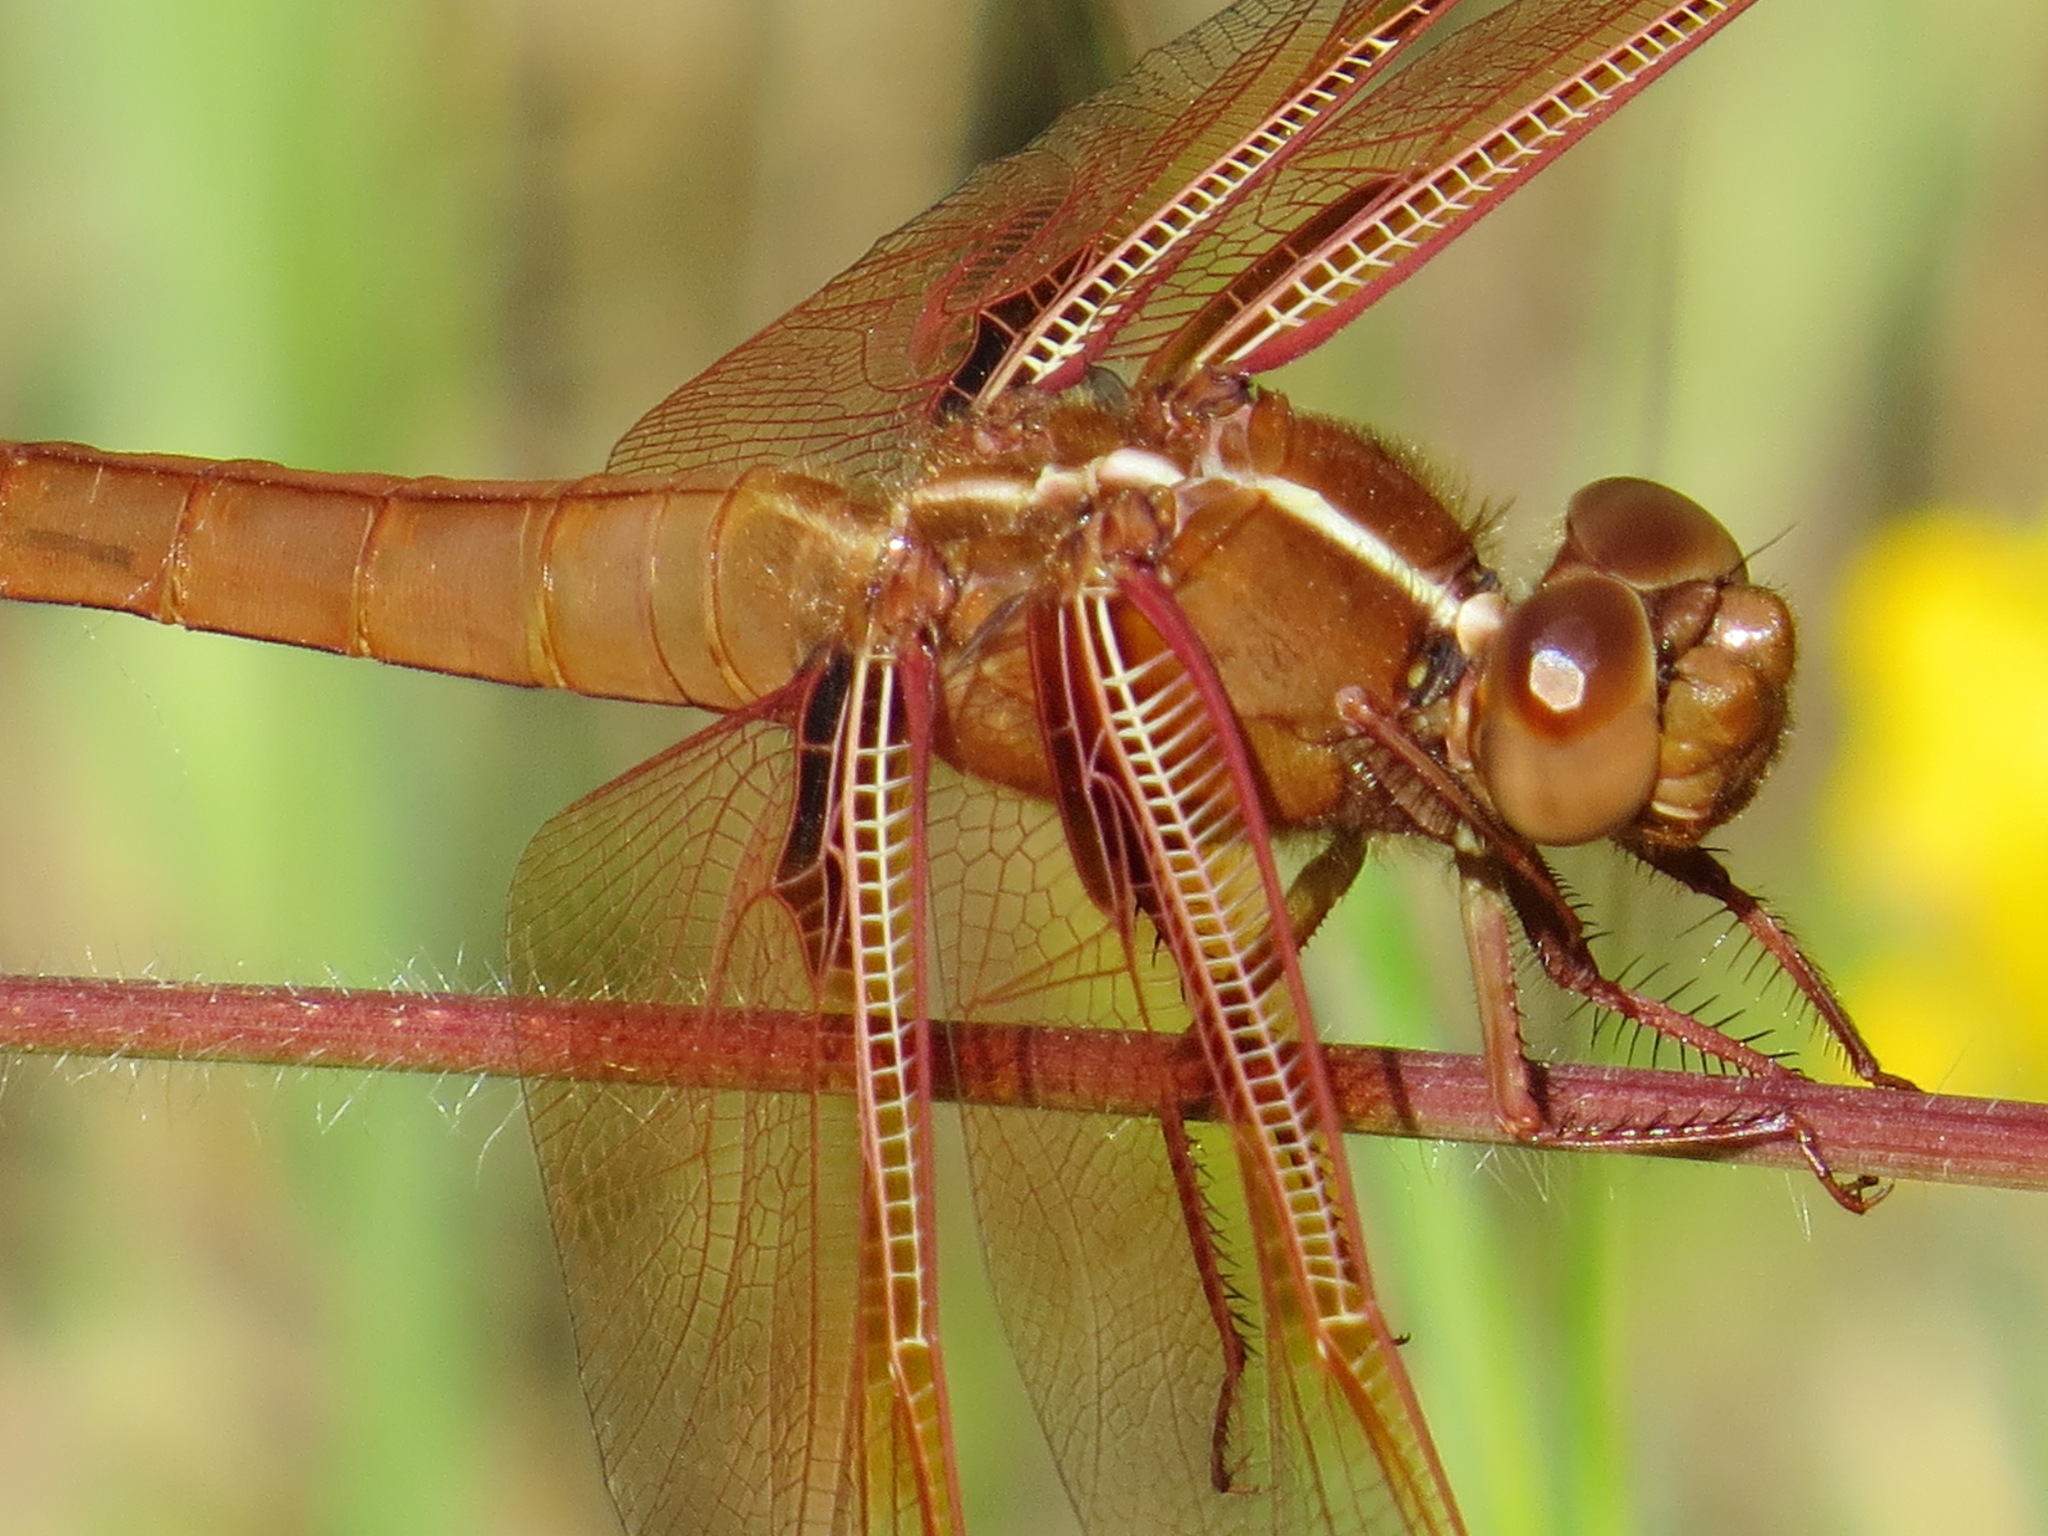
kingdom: Animalia
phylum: Arthropoda
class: Insecta
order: Odonata
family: Libellulidae
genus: Libellula
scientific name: Libellula saturata
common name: Flame skimmer
